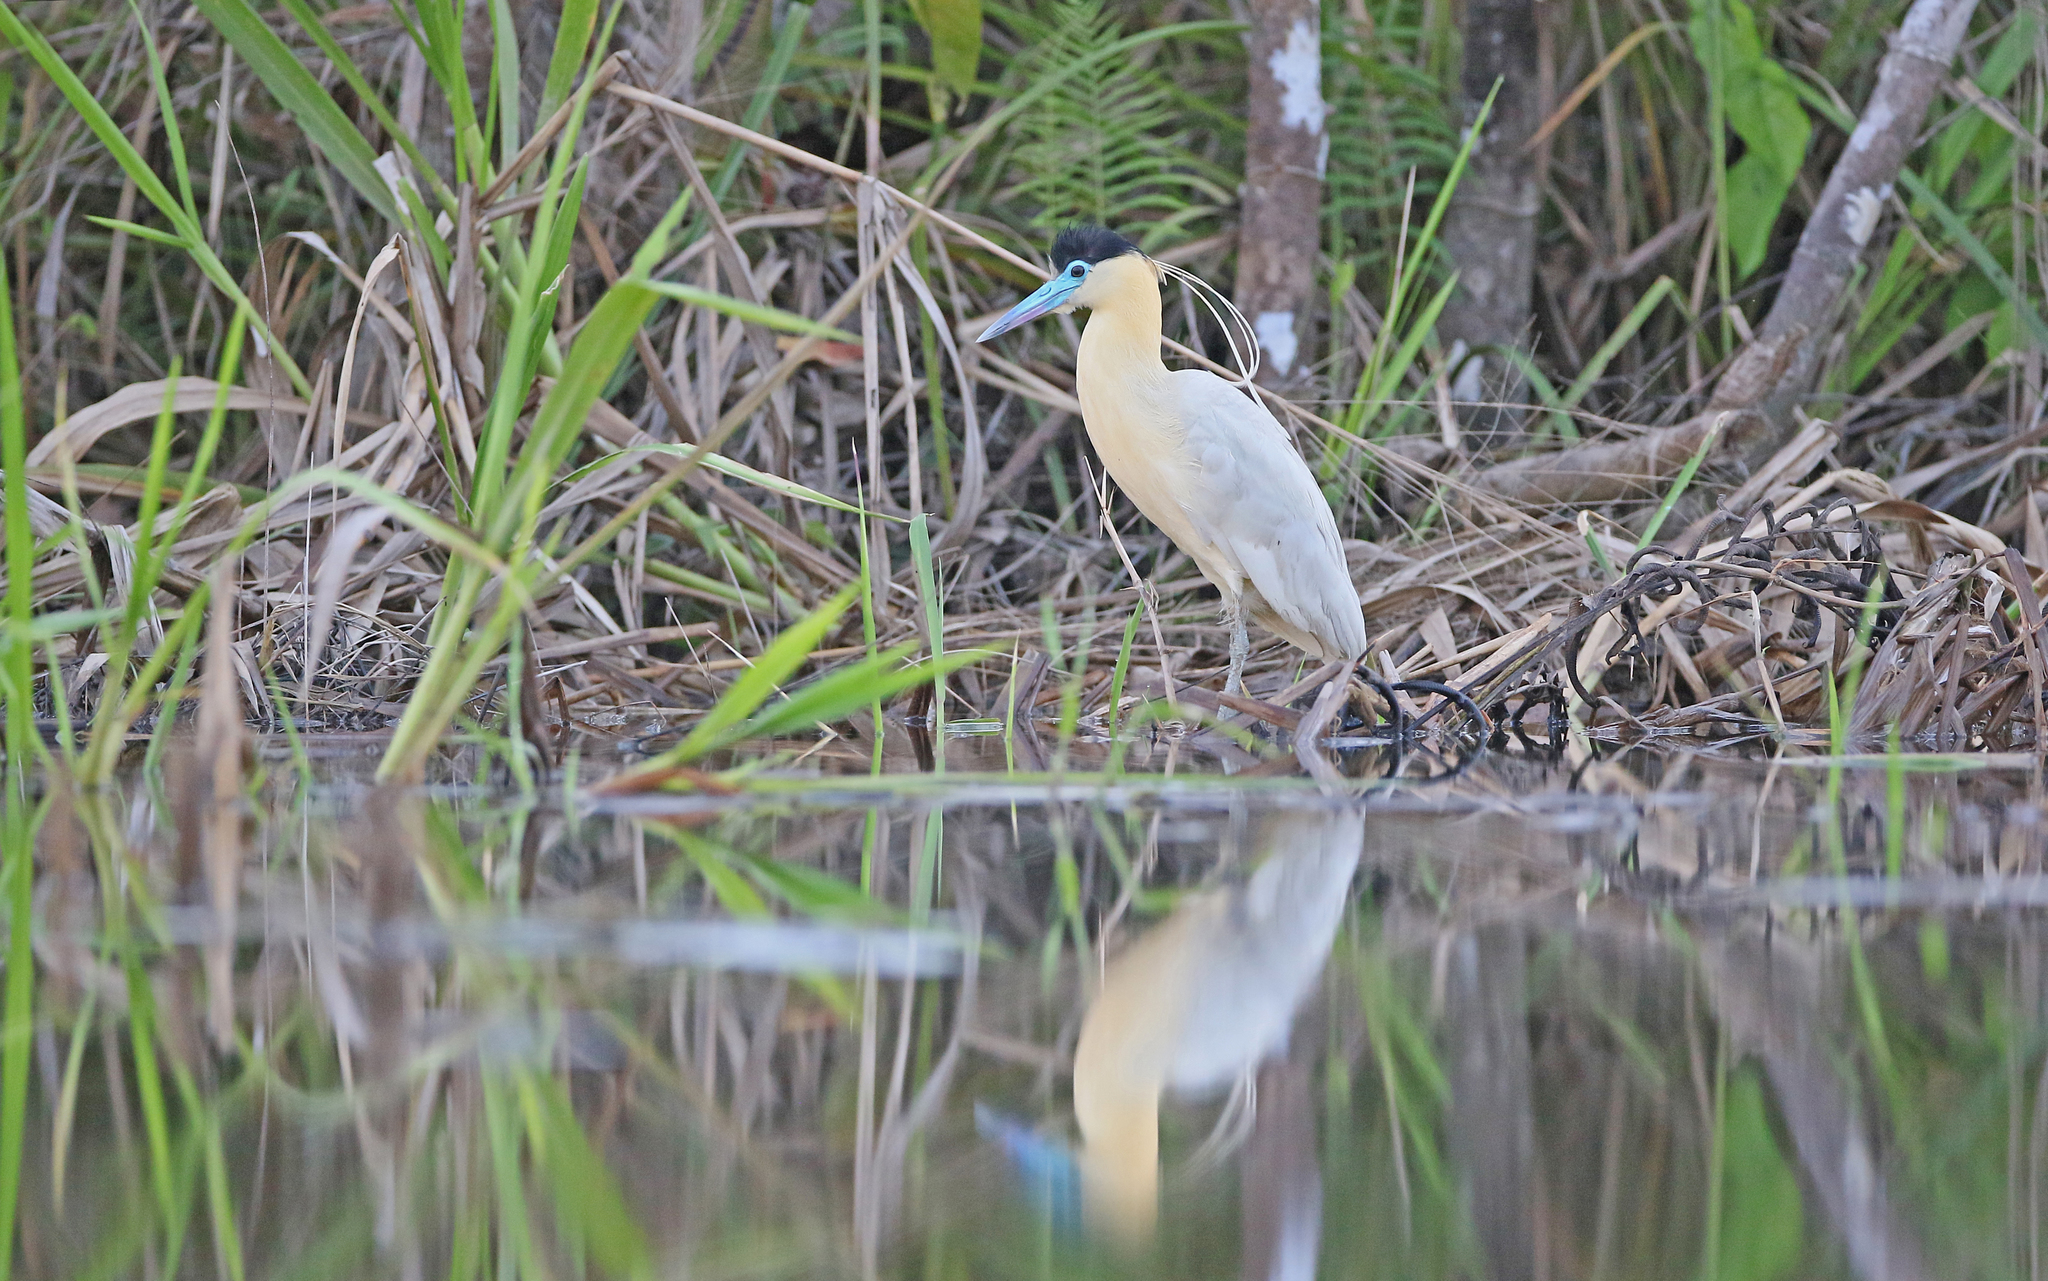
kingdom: Animalia
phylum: Chordata
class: Aves
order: Pelecaniformes
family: Ardeidae
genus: Pilherodius
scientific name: Pilherodius pileatus
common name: Capped heron
